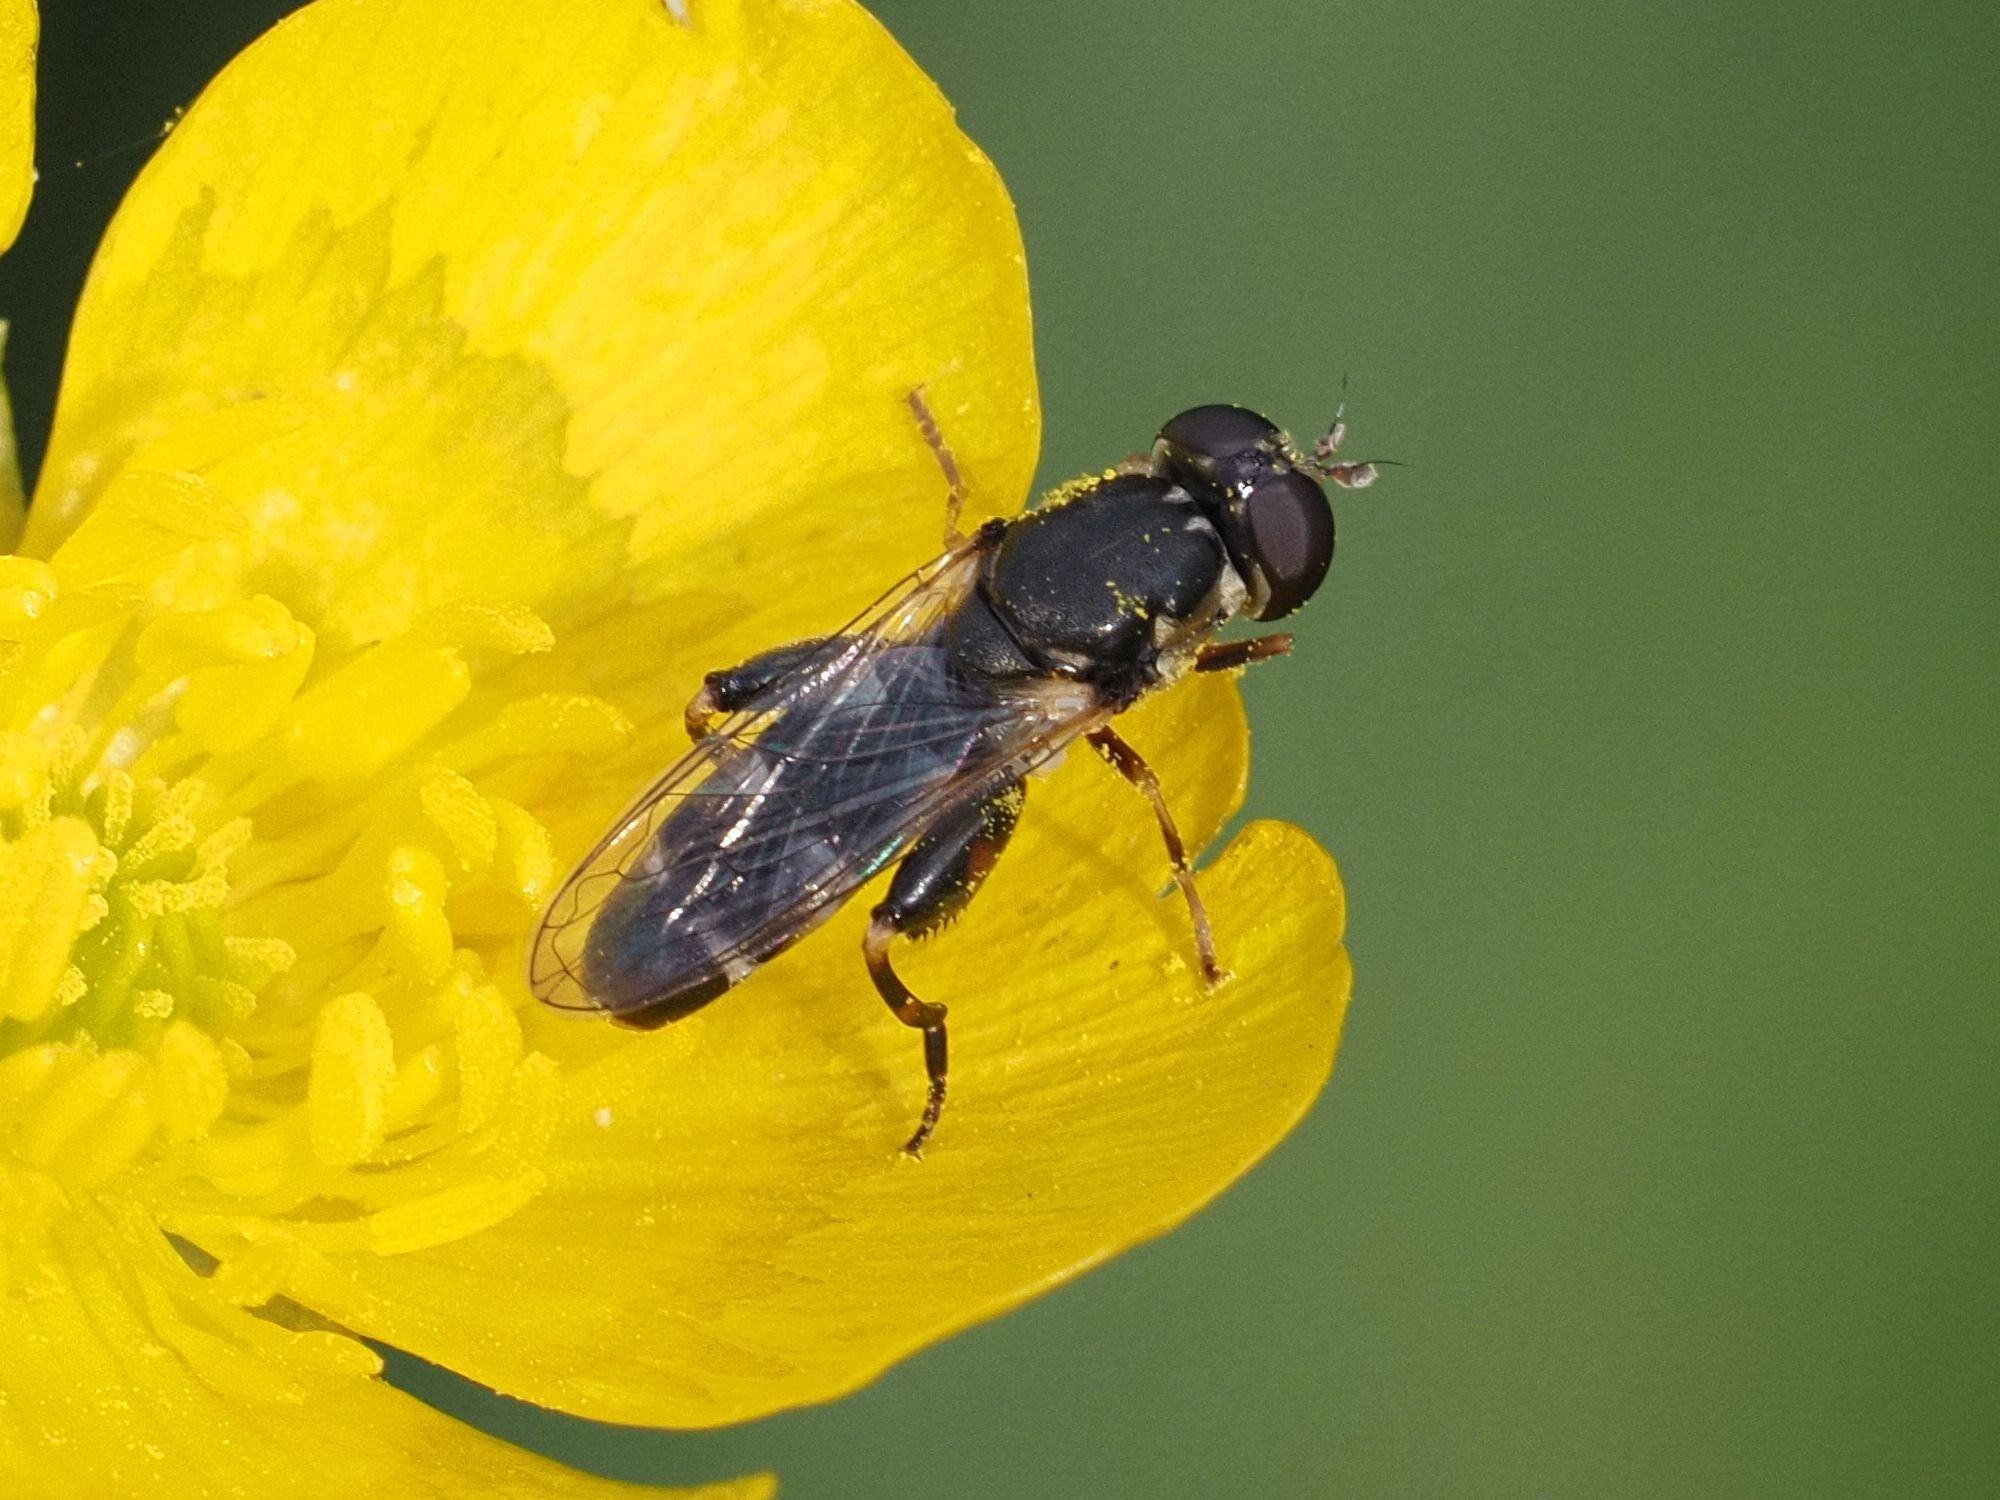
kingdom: Animalia
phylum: Arthropoda
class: Insecta
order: Diptera
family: Syrphidae
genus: Syritta
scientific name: Syritta pipiens
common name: Hover fly
